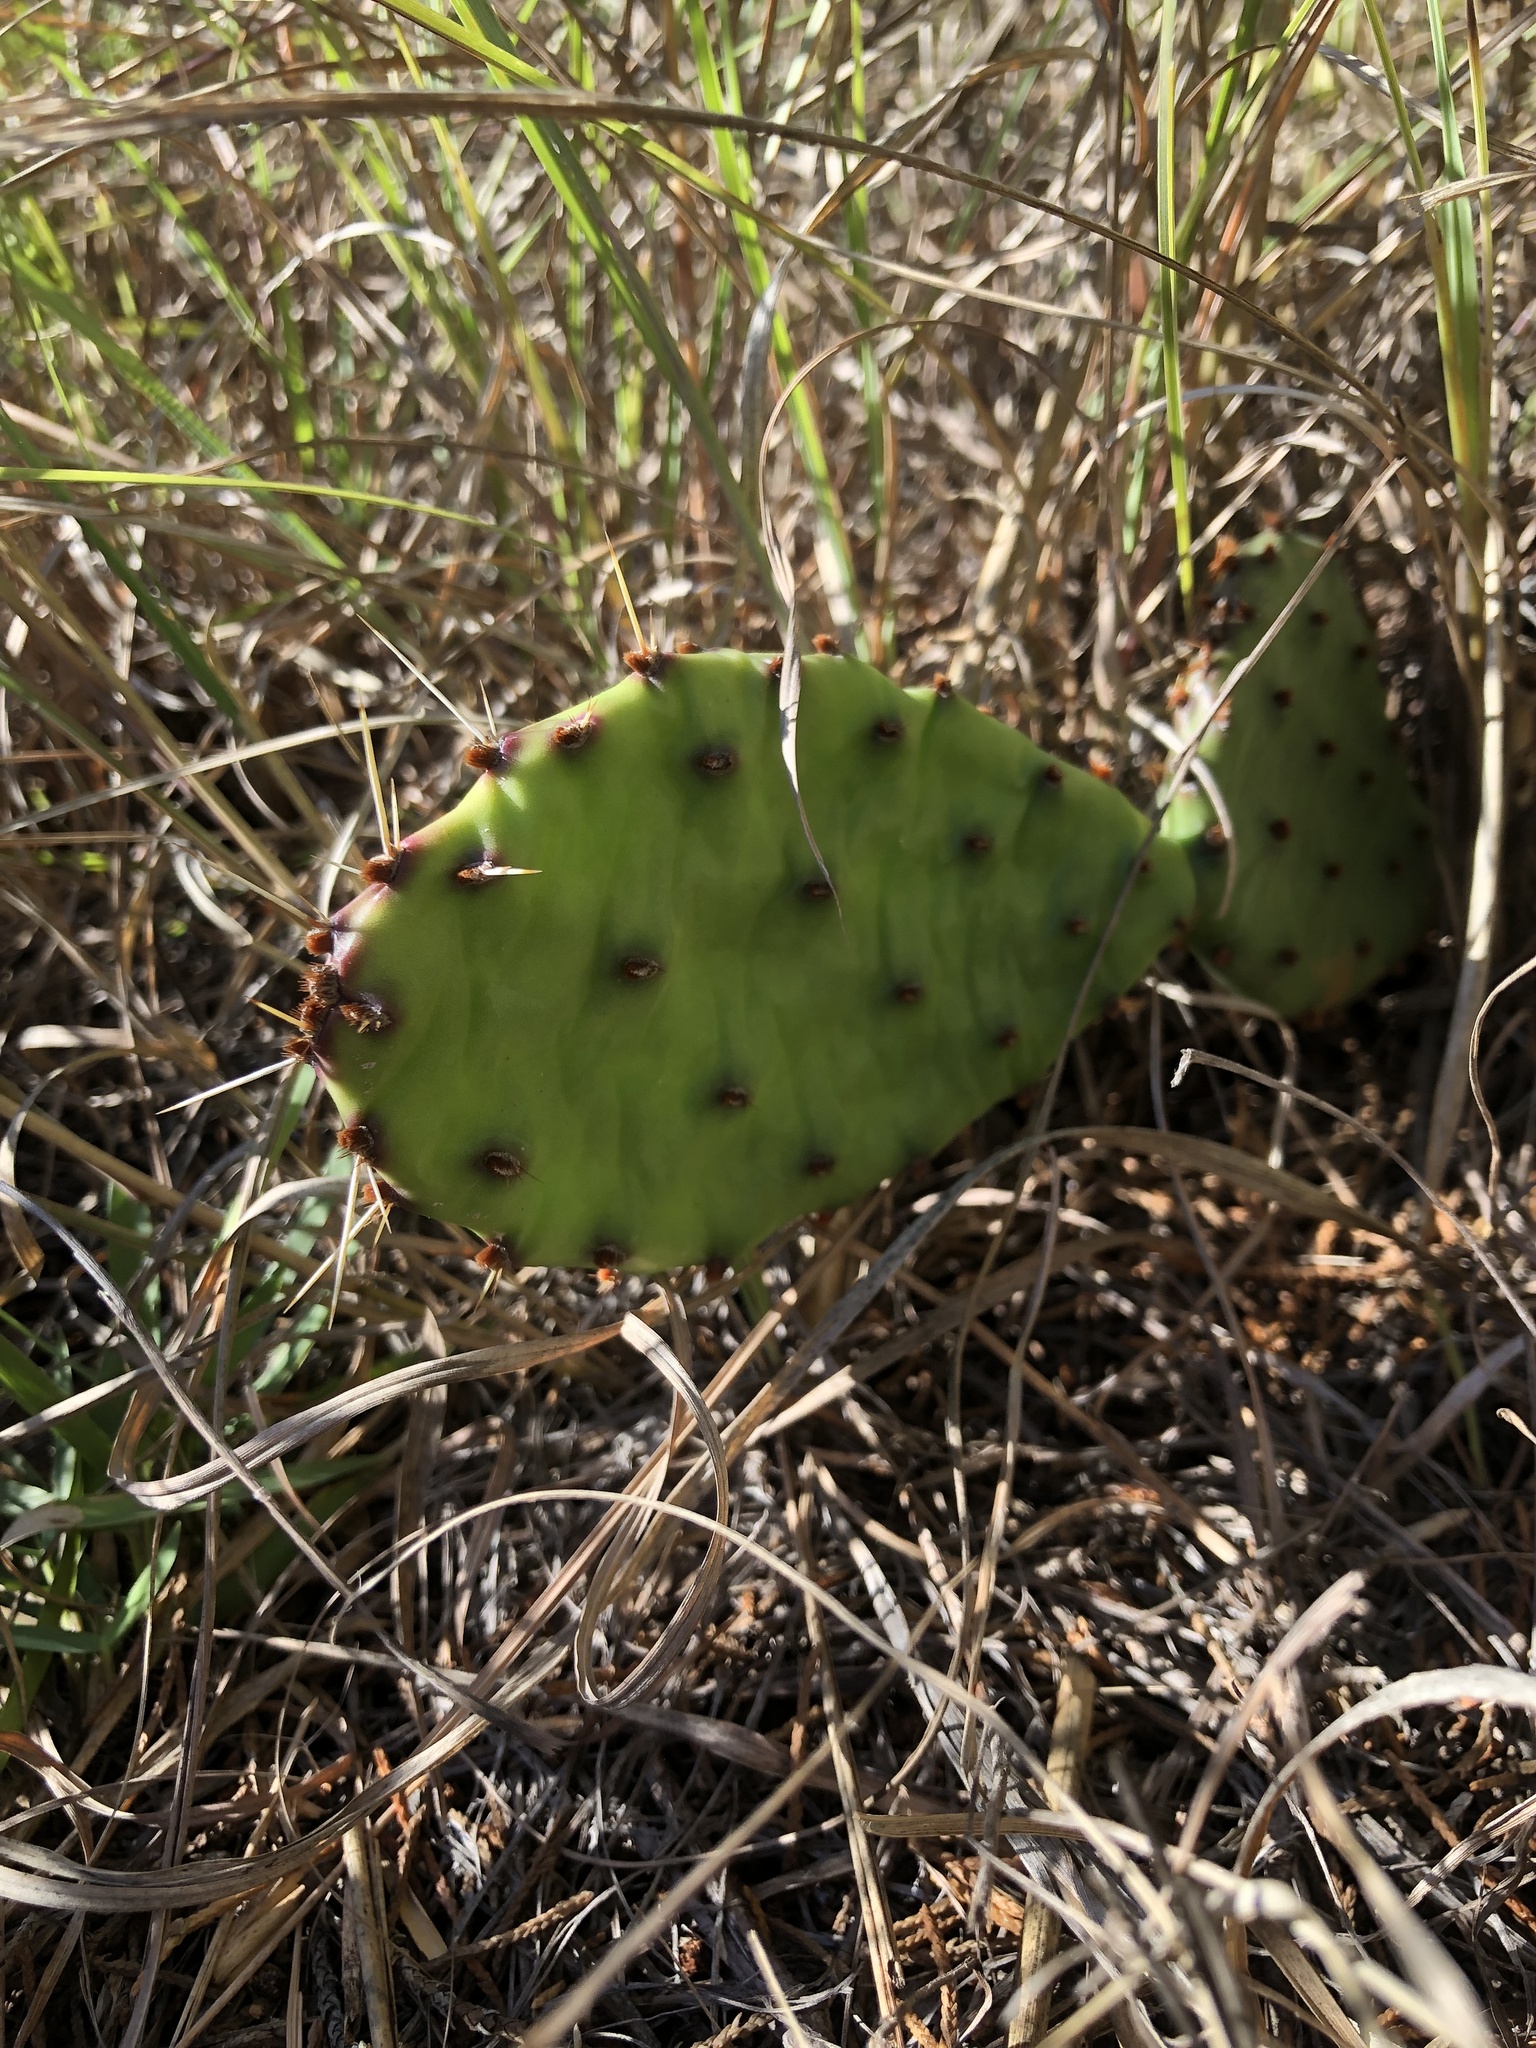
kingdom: Plantae
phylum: Tracheophyta
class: Magnoliopsida
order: Caryophyllales
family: Cactaceae
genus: Opuntia
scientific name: Opuntia macrorhiza
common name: Grassland pricklypear
